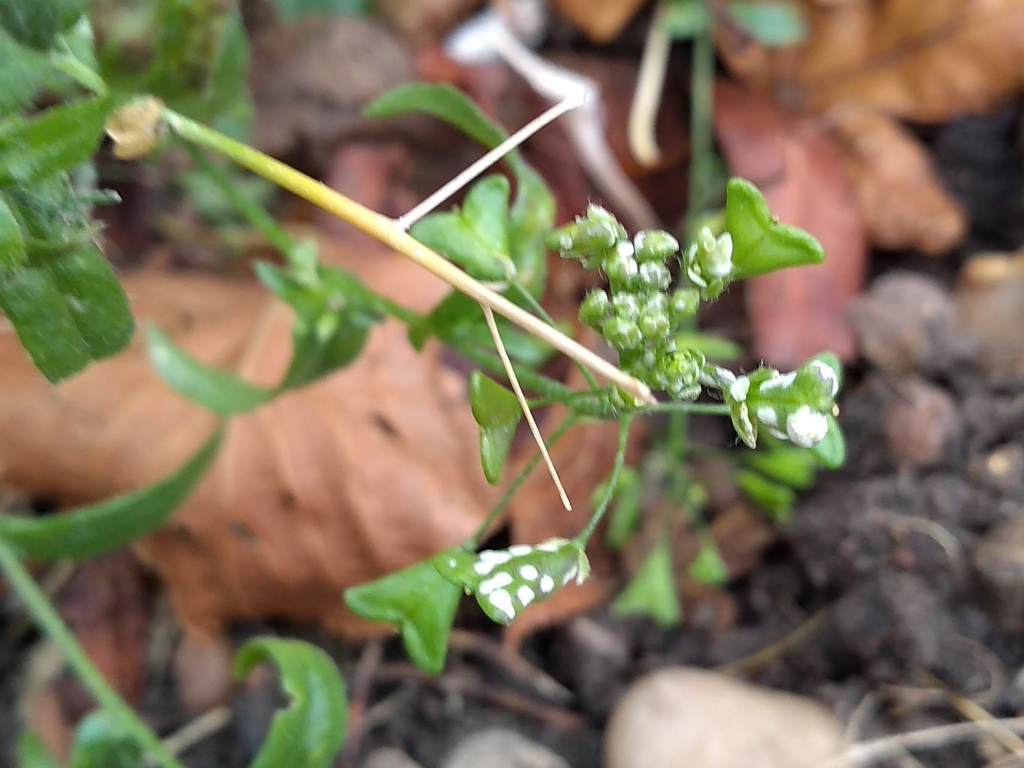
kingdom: Chromista
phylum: Oomycota
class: Peronosporea
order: Albuginales
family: Albuginaceae
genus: Albugo
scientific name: Albugo candida
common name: Crucifer white blister
